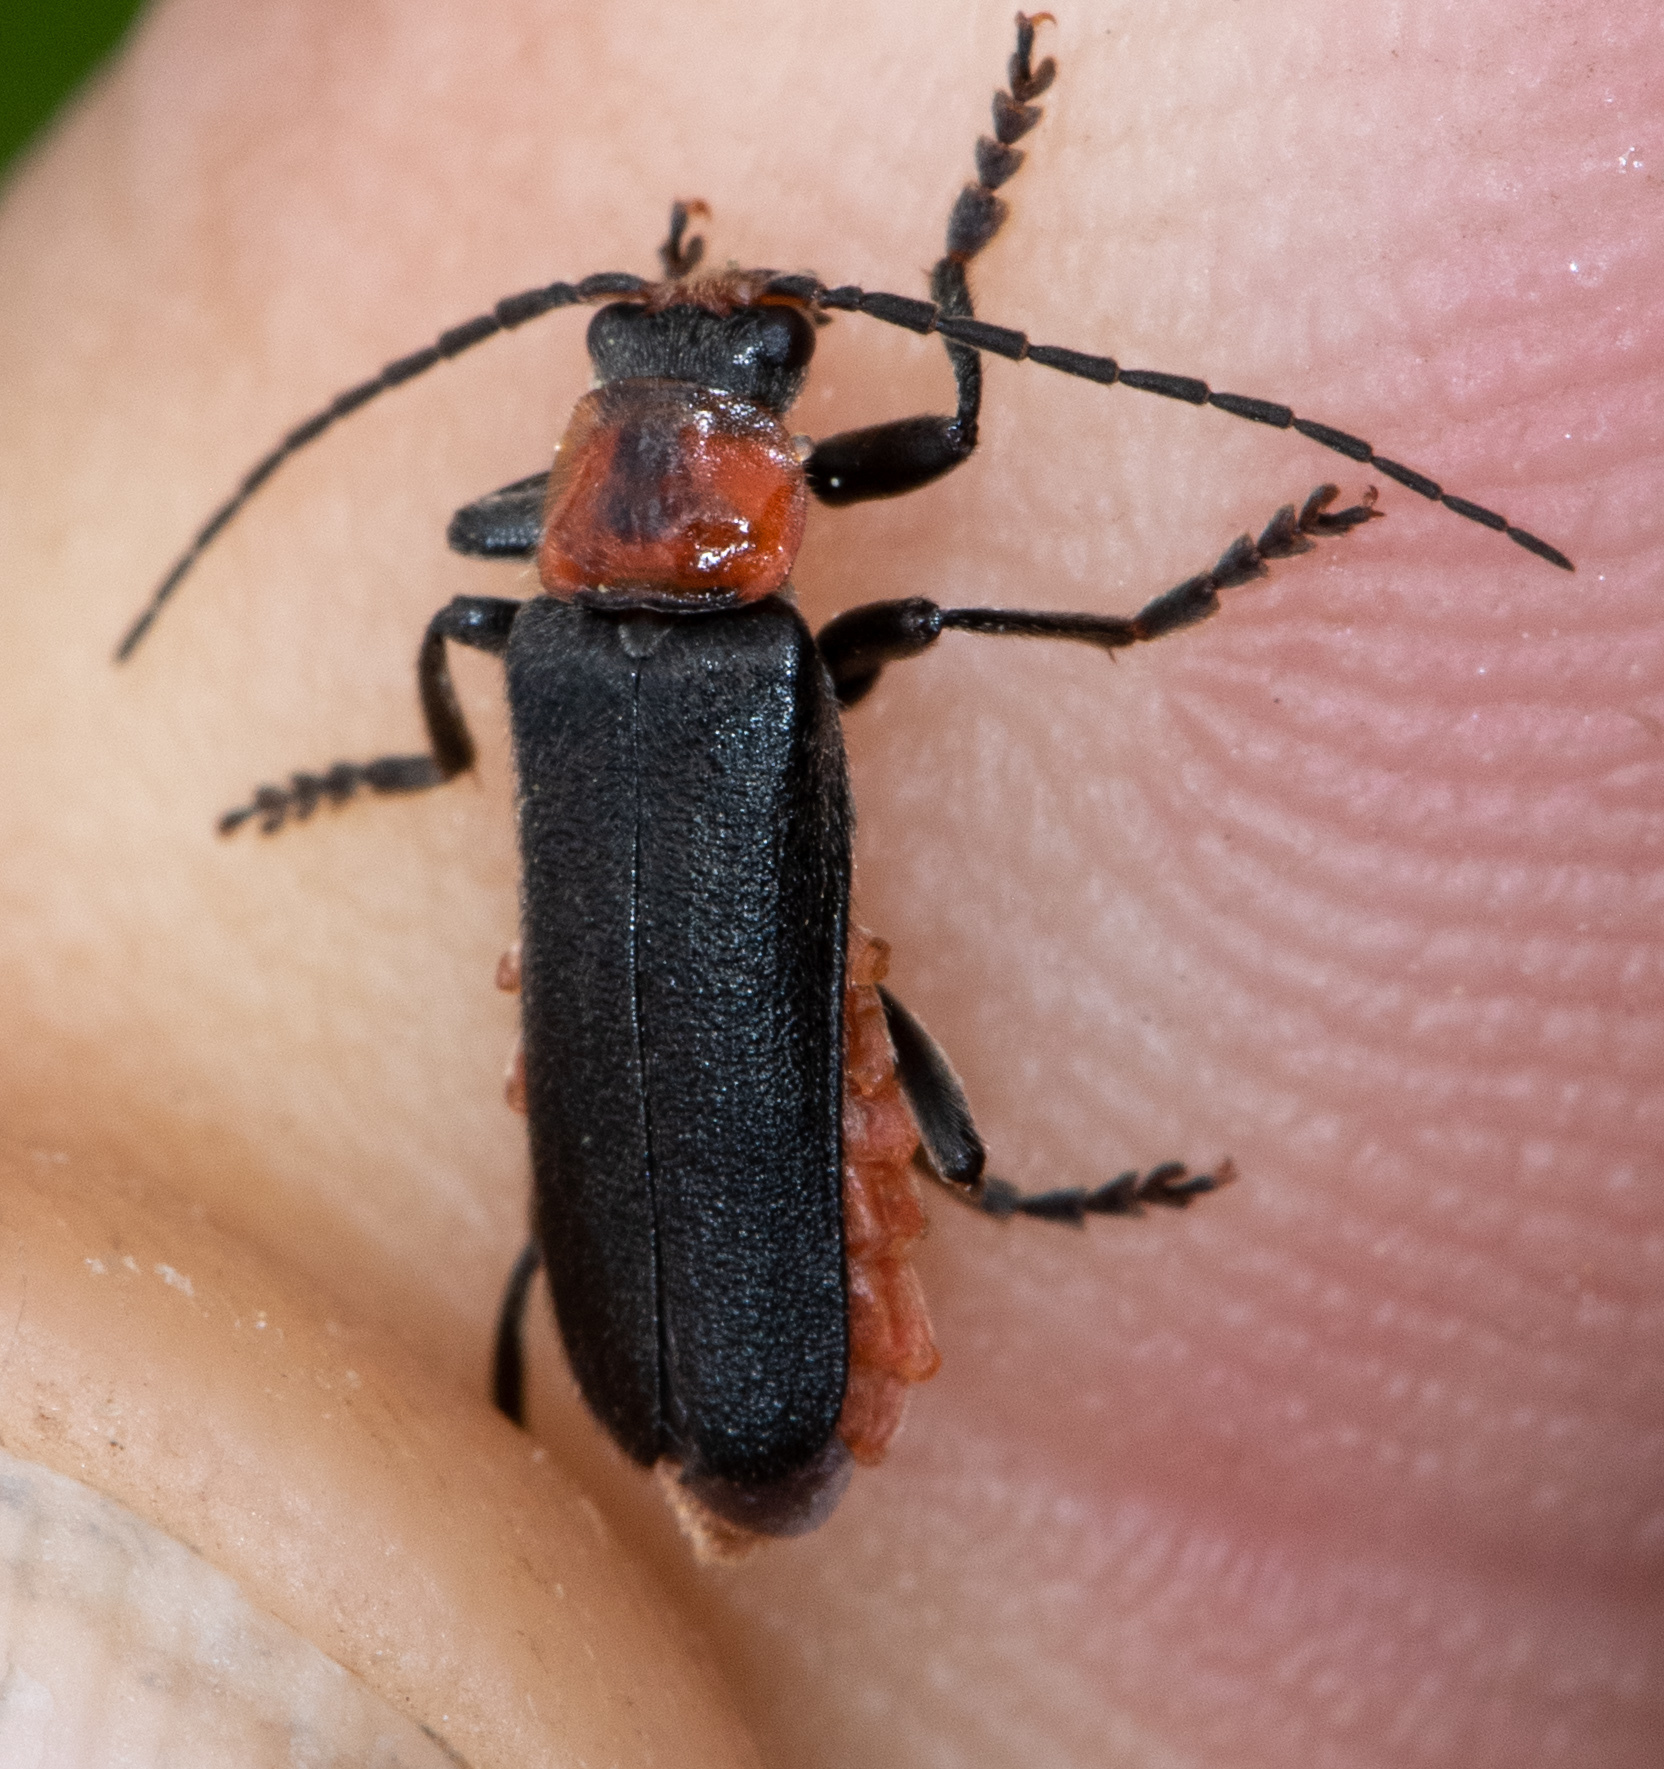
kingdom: Animalia
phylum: Arthropoda
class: Insecta
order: Coleoptera
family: Cantharidae
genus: Cantharis
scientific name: Cantharis oregona
